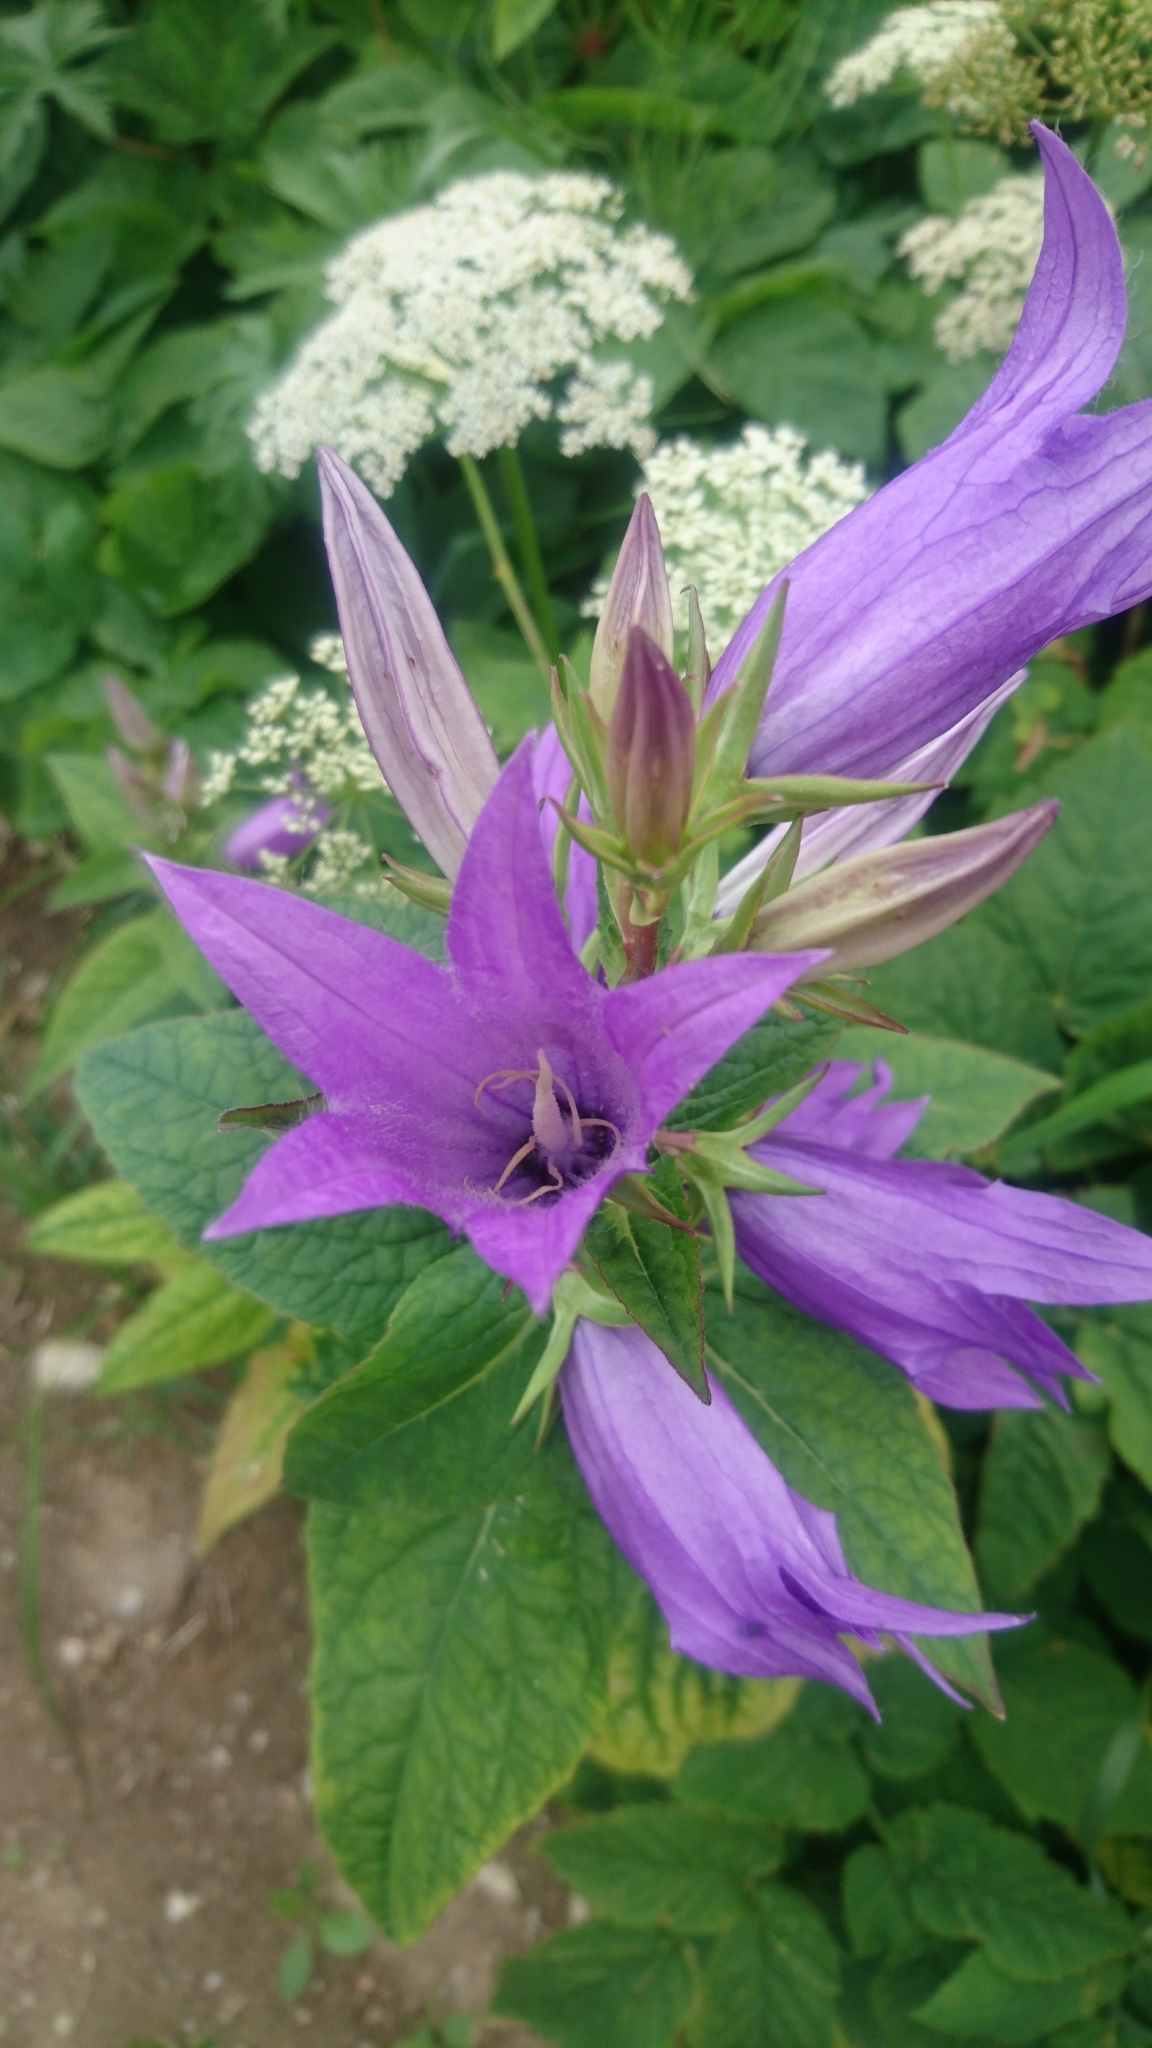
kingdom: Plantae
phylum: Tracheophyta
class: Magnoliopsida
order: Asterales
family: Campanulaceae
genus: Campanula
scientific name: Campanula trachelium
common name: Nettle-leaved bellflower
